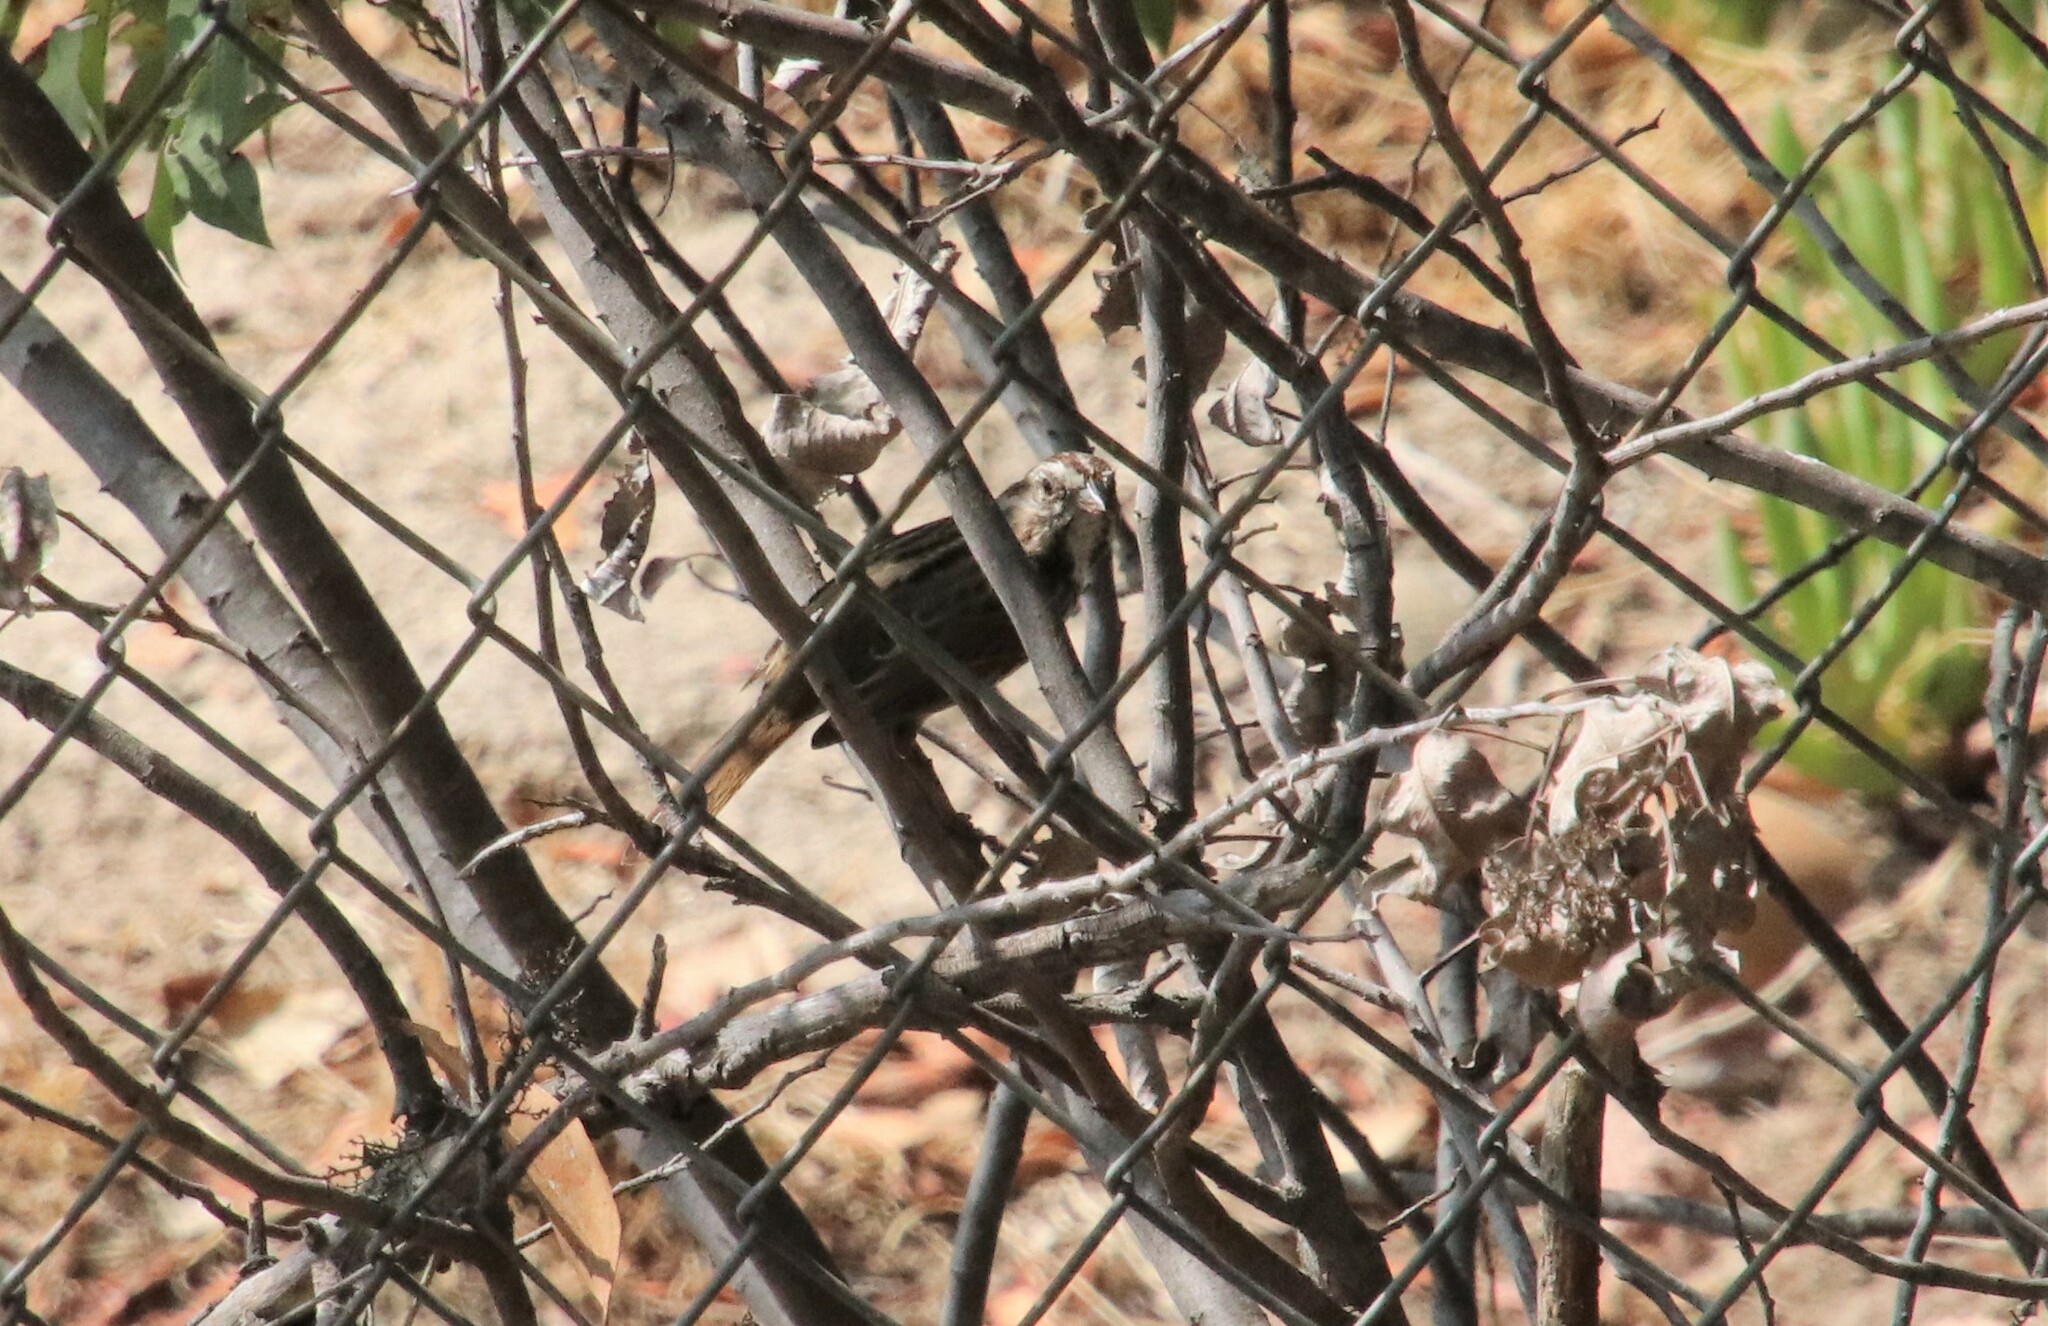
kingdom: Animalia
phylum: Chordata
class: Aves
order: Passeriformes
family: Passerellidae
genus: Melospiza
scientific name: Melospiza melodia
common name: Song sparrow
